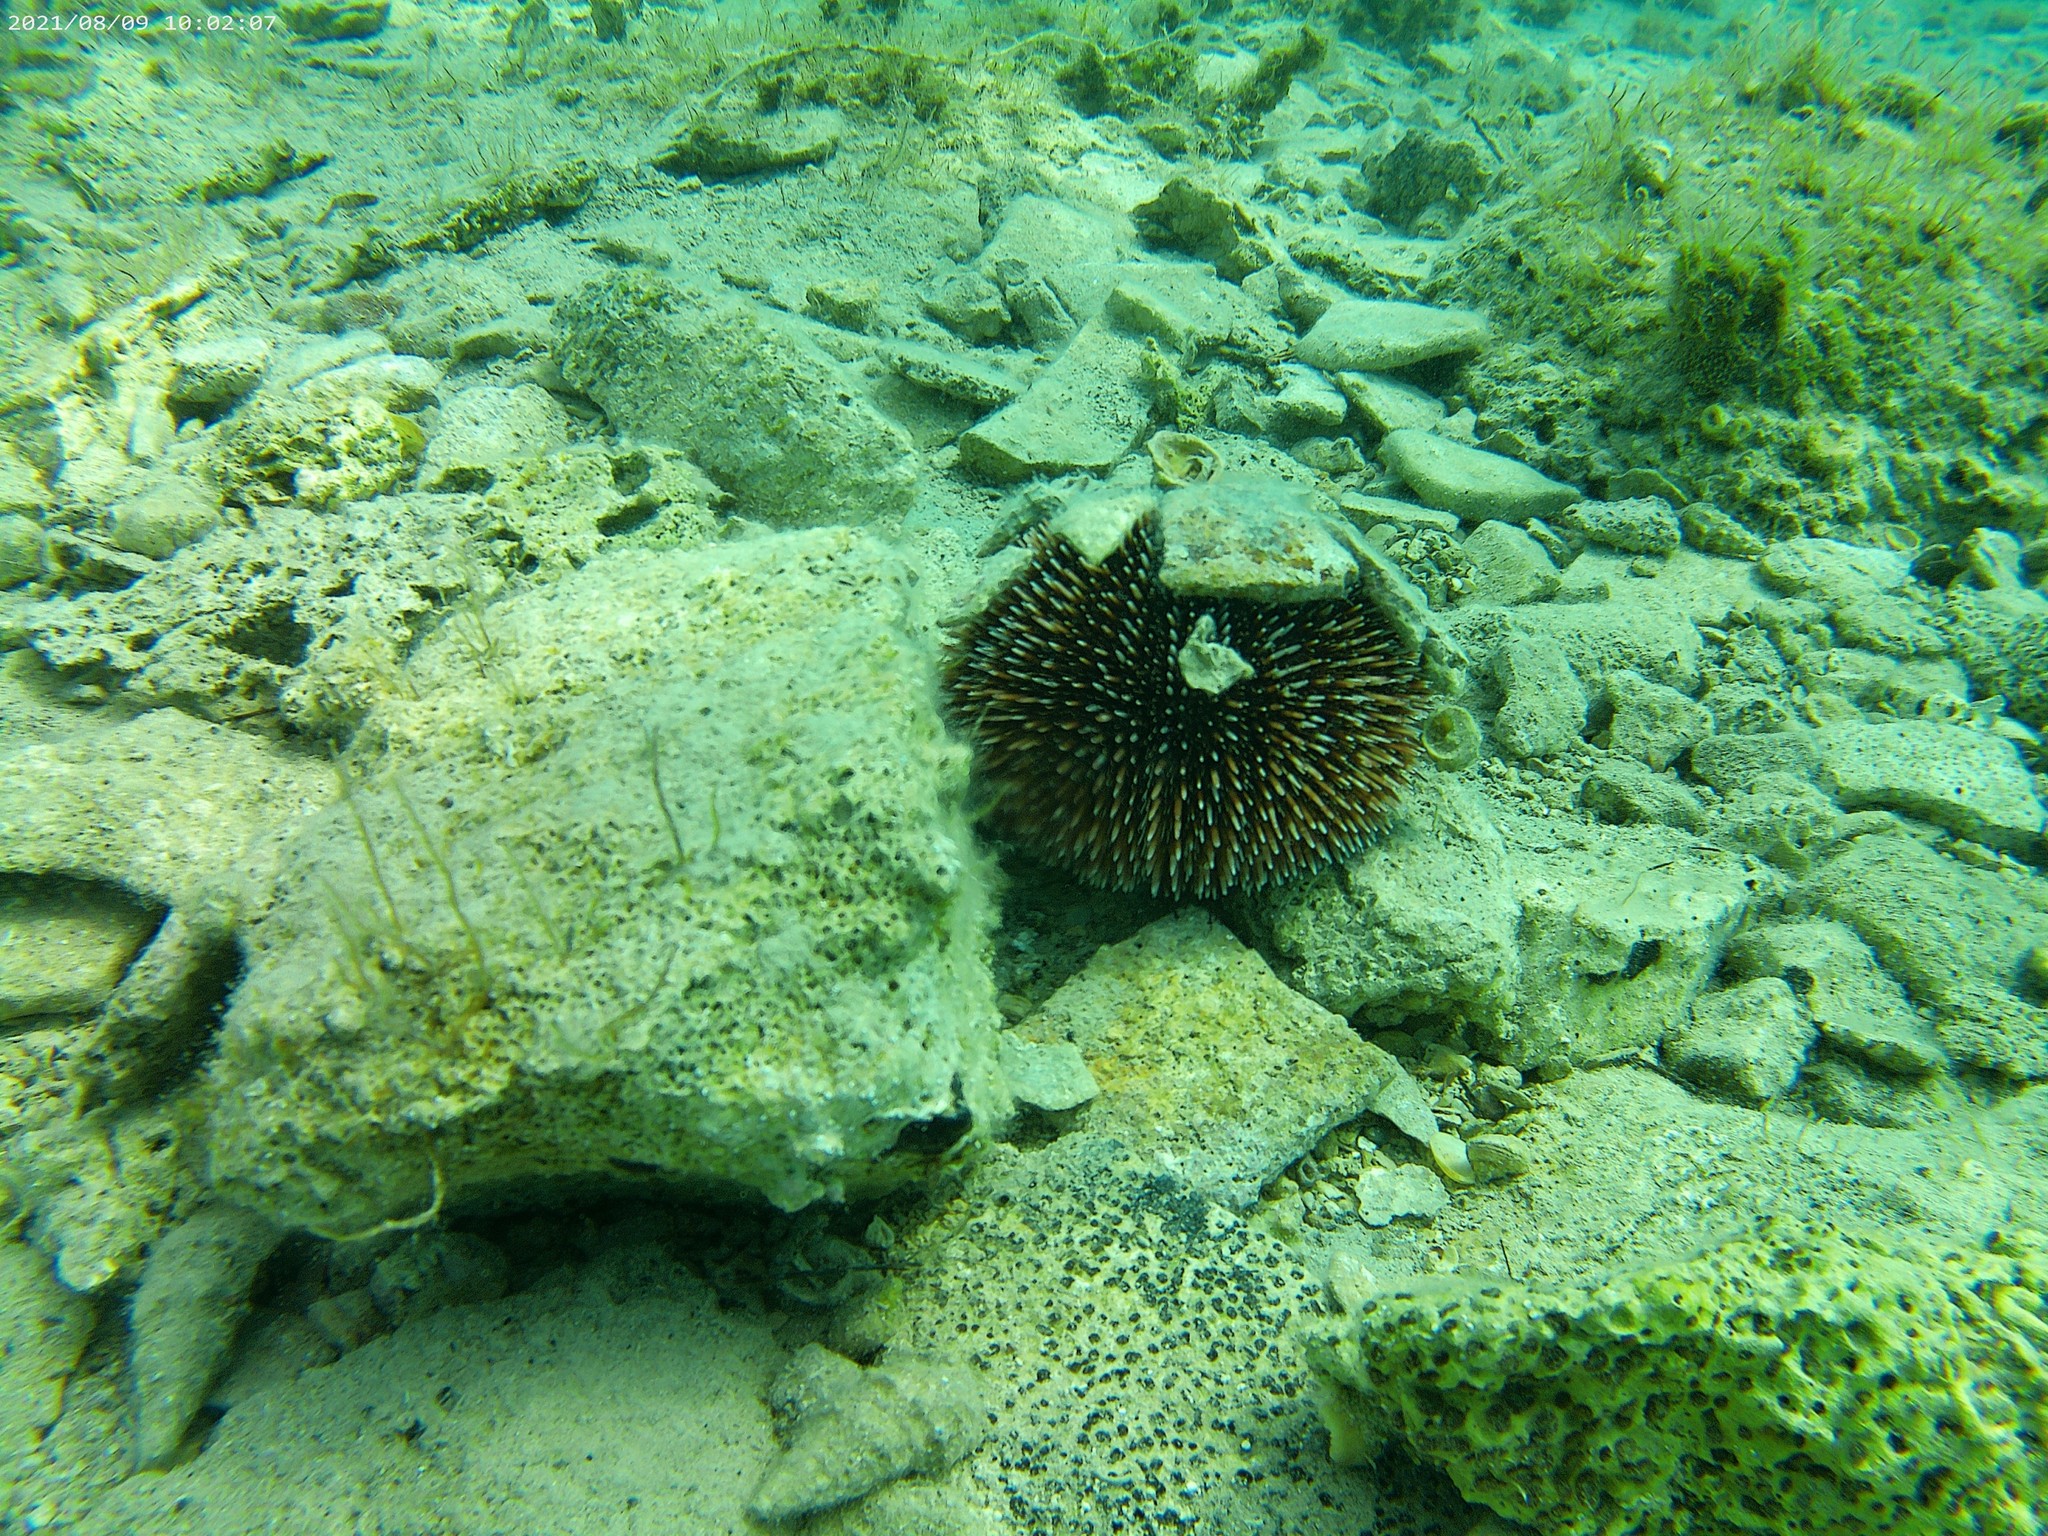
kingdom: Animalia
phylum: Echinodermata
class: Echinoidea
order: Camarodonta
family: Toxopneustidae
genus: Sphaerechinus
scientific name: Sphaerechinus granularis
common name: Violet sea urchin
